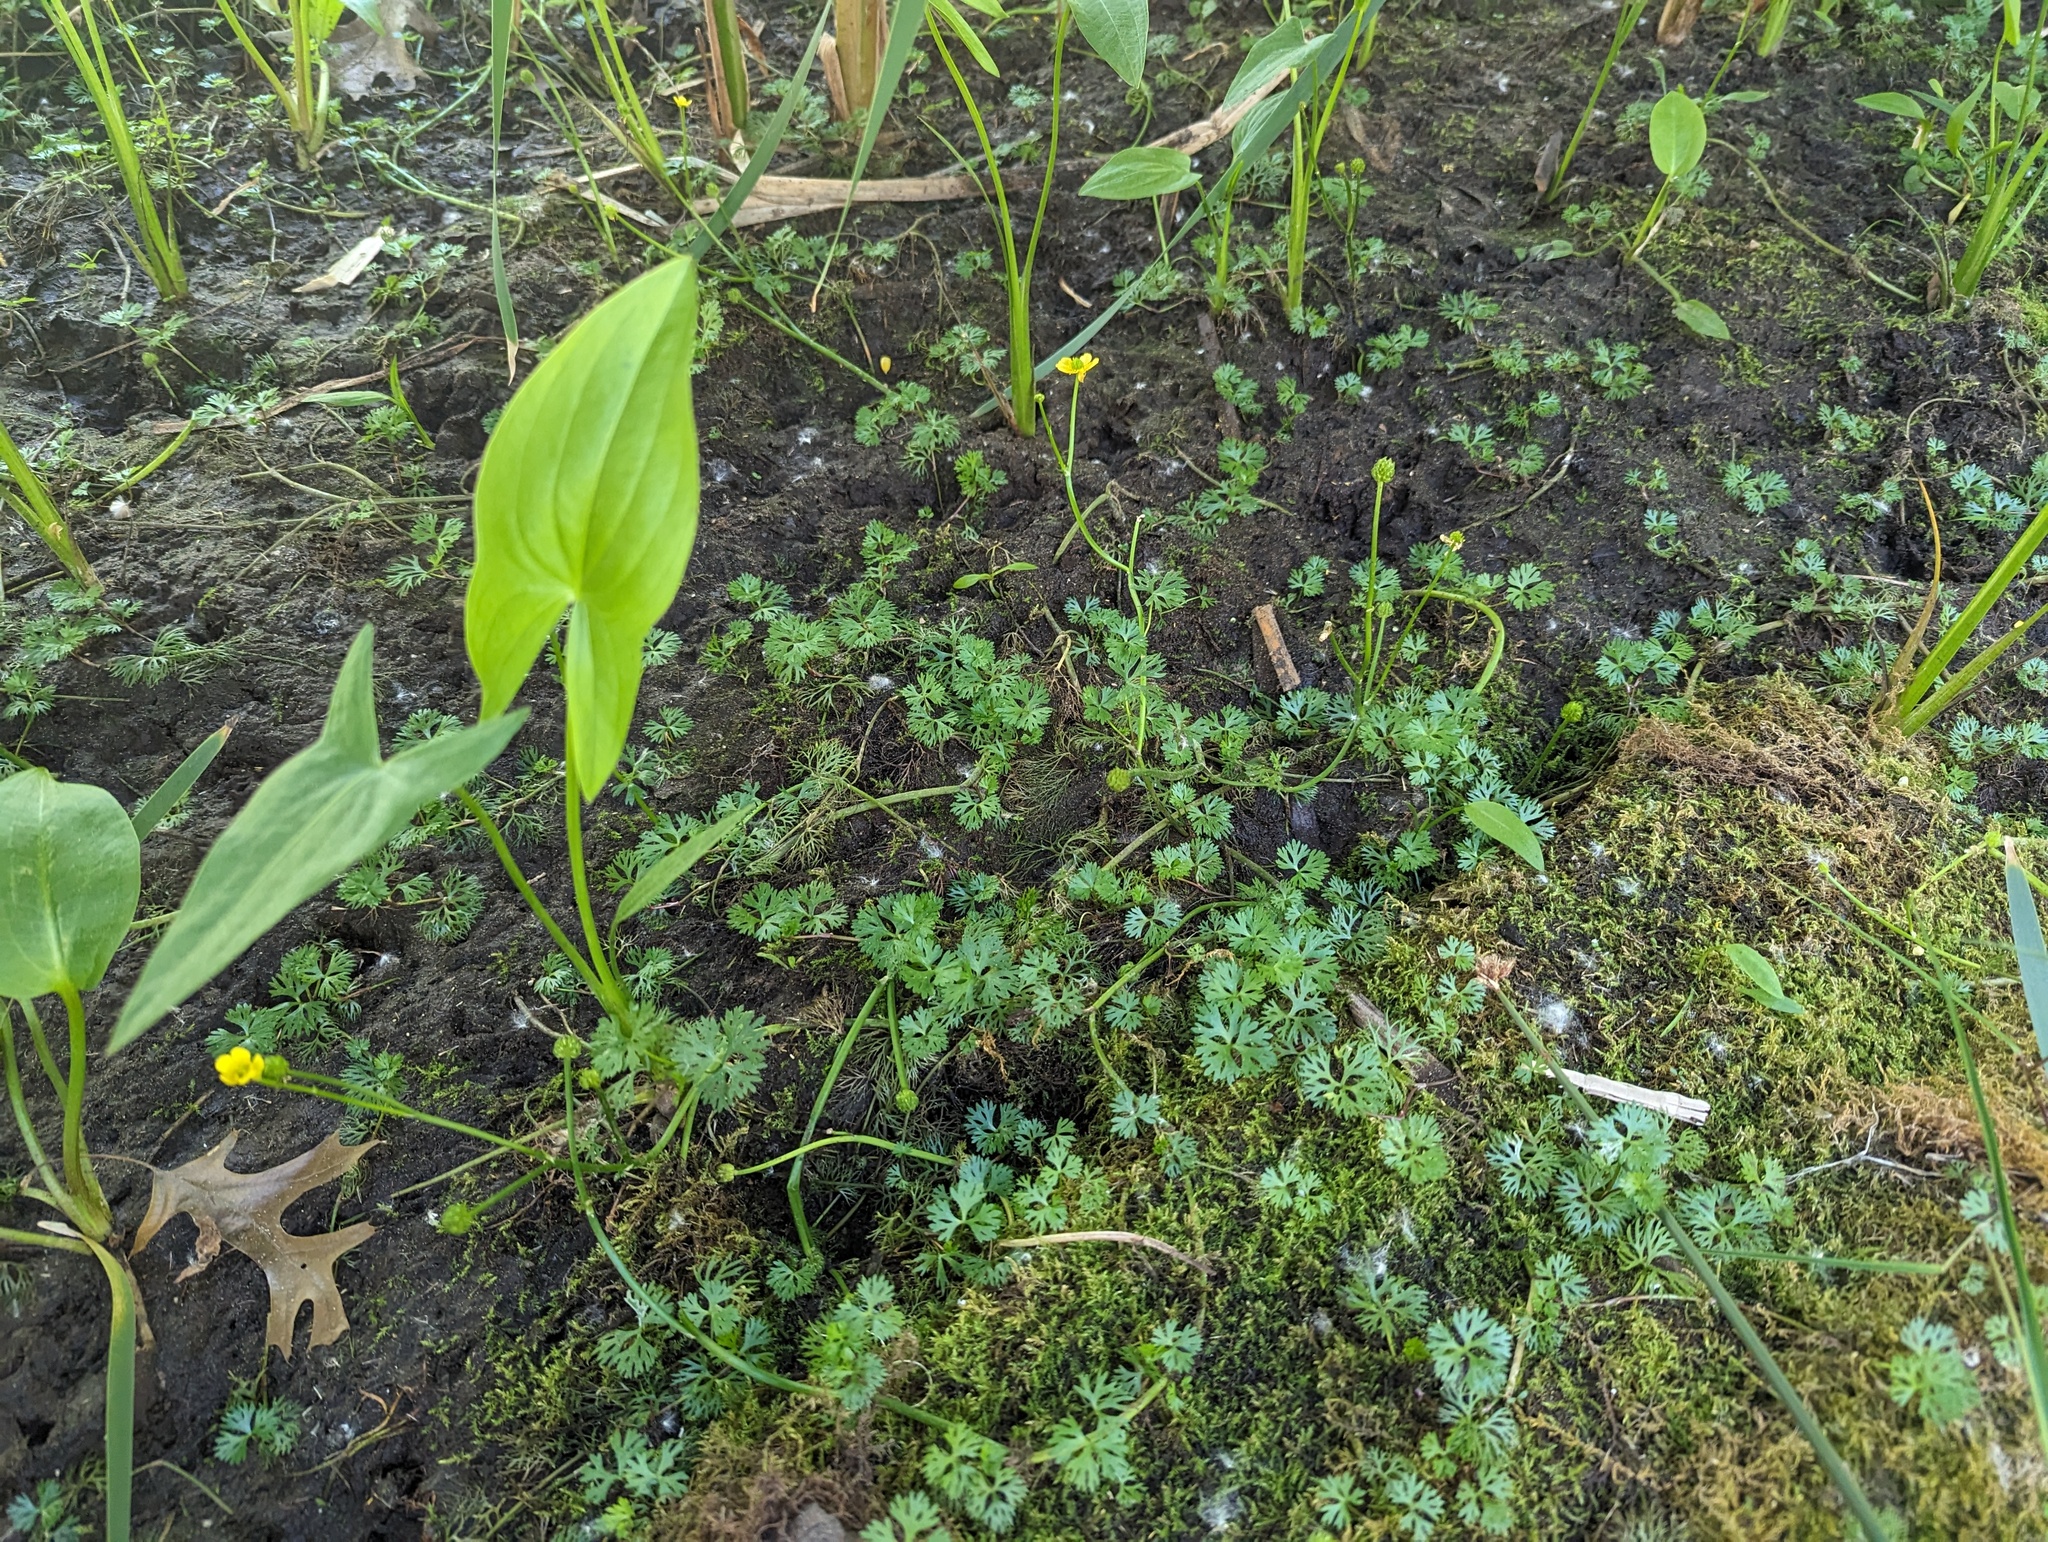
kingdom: Plantae
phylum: Tracheophyta
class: Magnoliopsida
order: Ranunculales
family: Ranunculaceae
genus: Ranunculus
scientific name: Ranunculus flabellaris
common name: Yellow water-crowfoot
